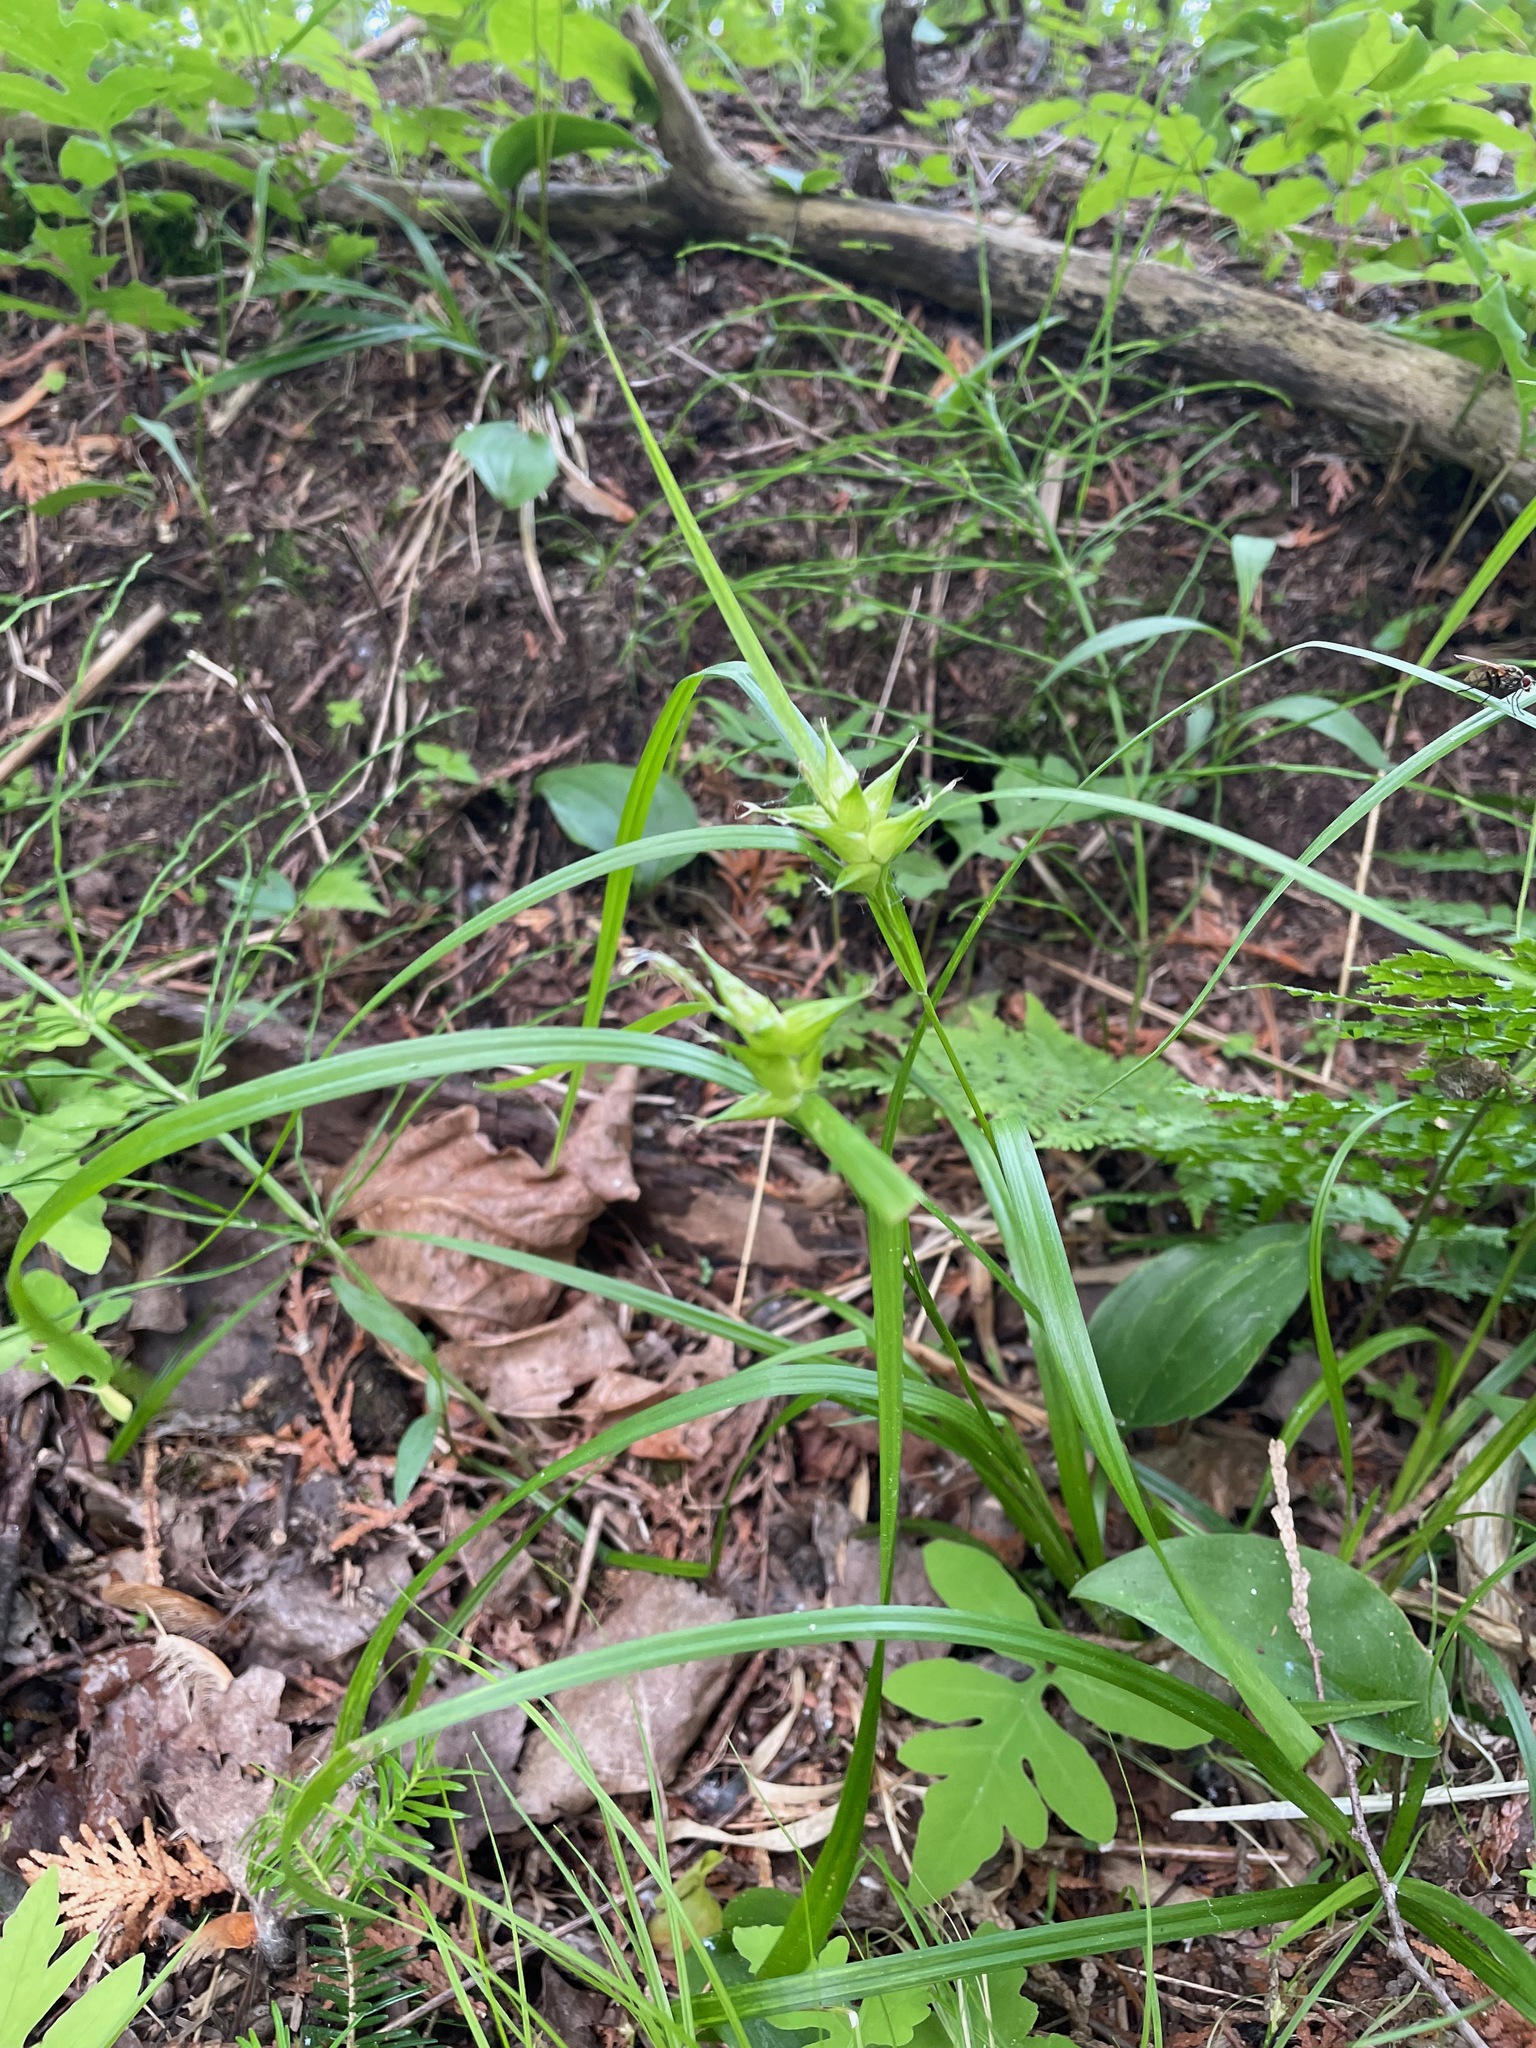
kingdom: Plantae
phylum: Tracheophyta
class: Liliopsida
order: Poales
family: Cyperaceae
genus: Carex
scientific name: Carex intumescens
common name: Greater bladder sedge
